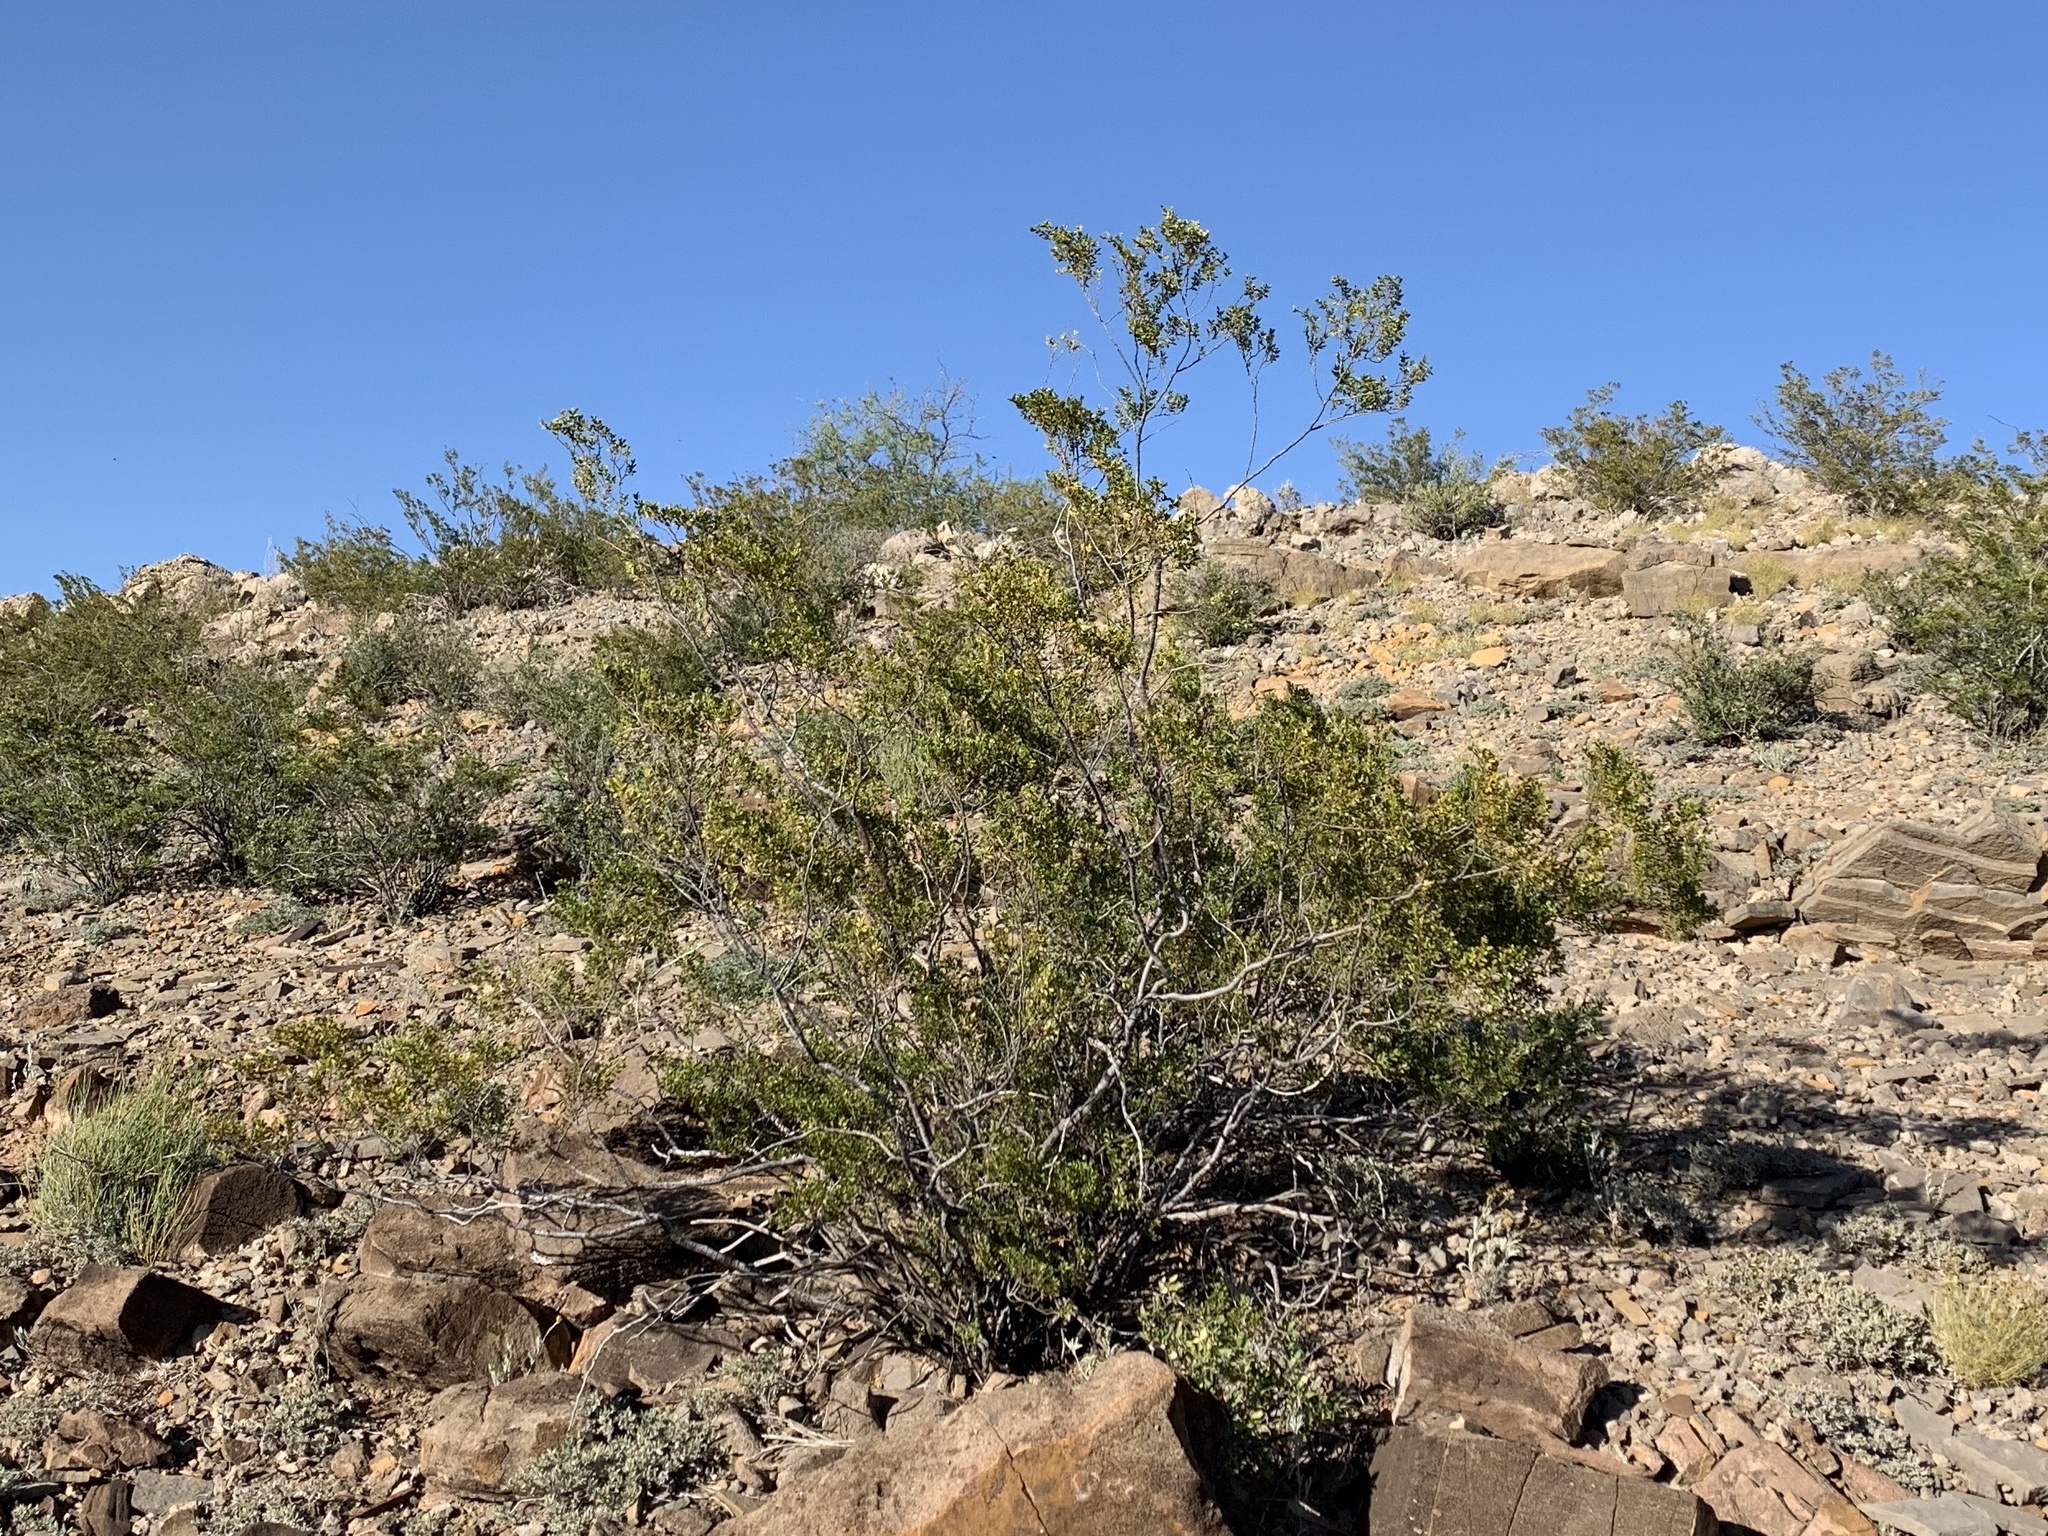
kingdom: Plantae
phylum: Tracheophyta
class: Magnoliopsida
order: Zygophyllales
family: Zygophyllaceae
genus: Larrea
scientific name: Larrea tridentata
